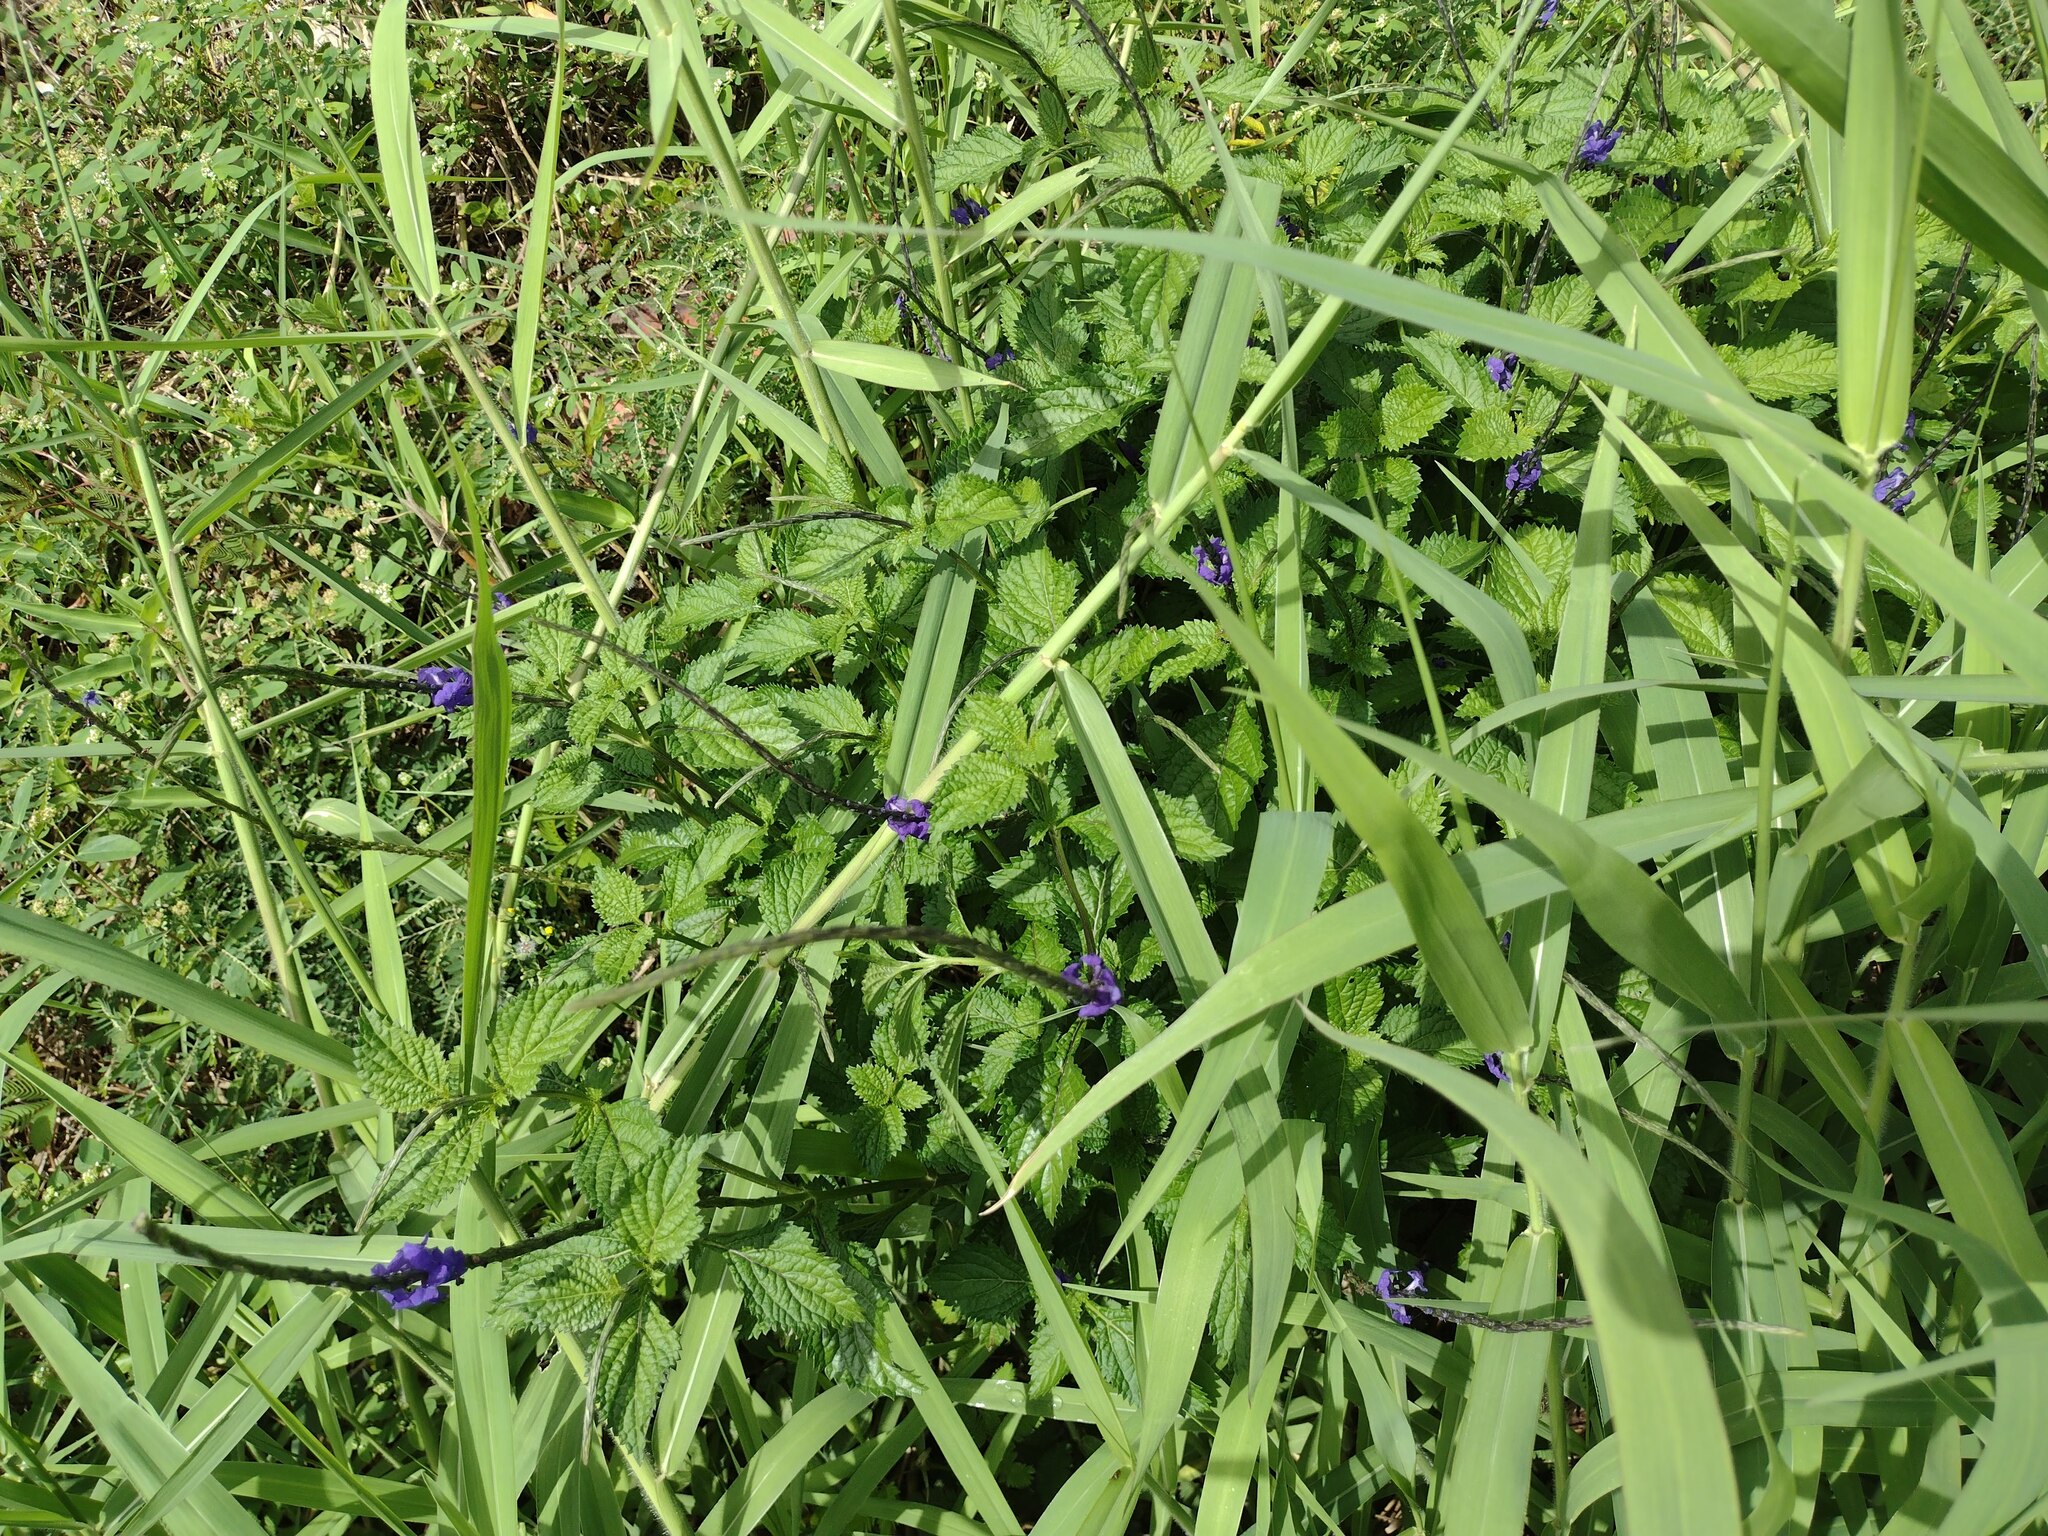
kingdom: Plantae
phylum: Tracheophyta
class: Magnoliopsida
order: Lamiales
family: Verbenaceae
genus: Stachytarpheta
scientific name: Stachytarpheta cayennensis
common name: Cayenne porterweed
